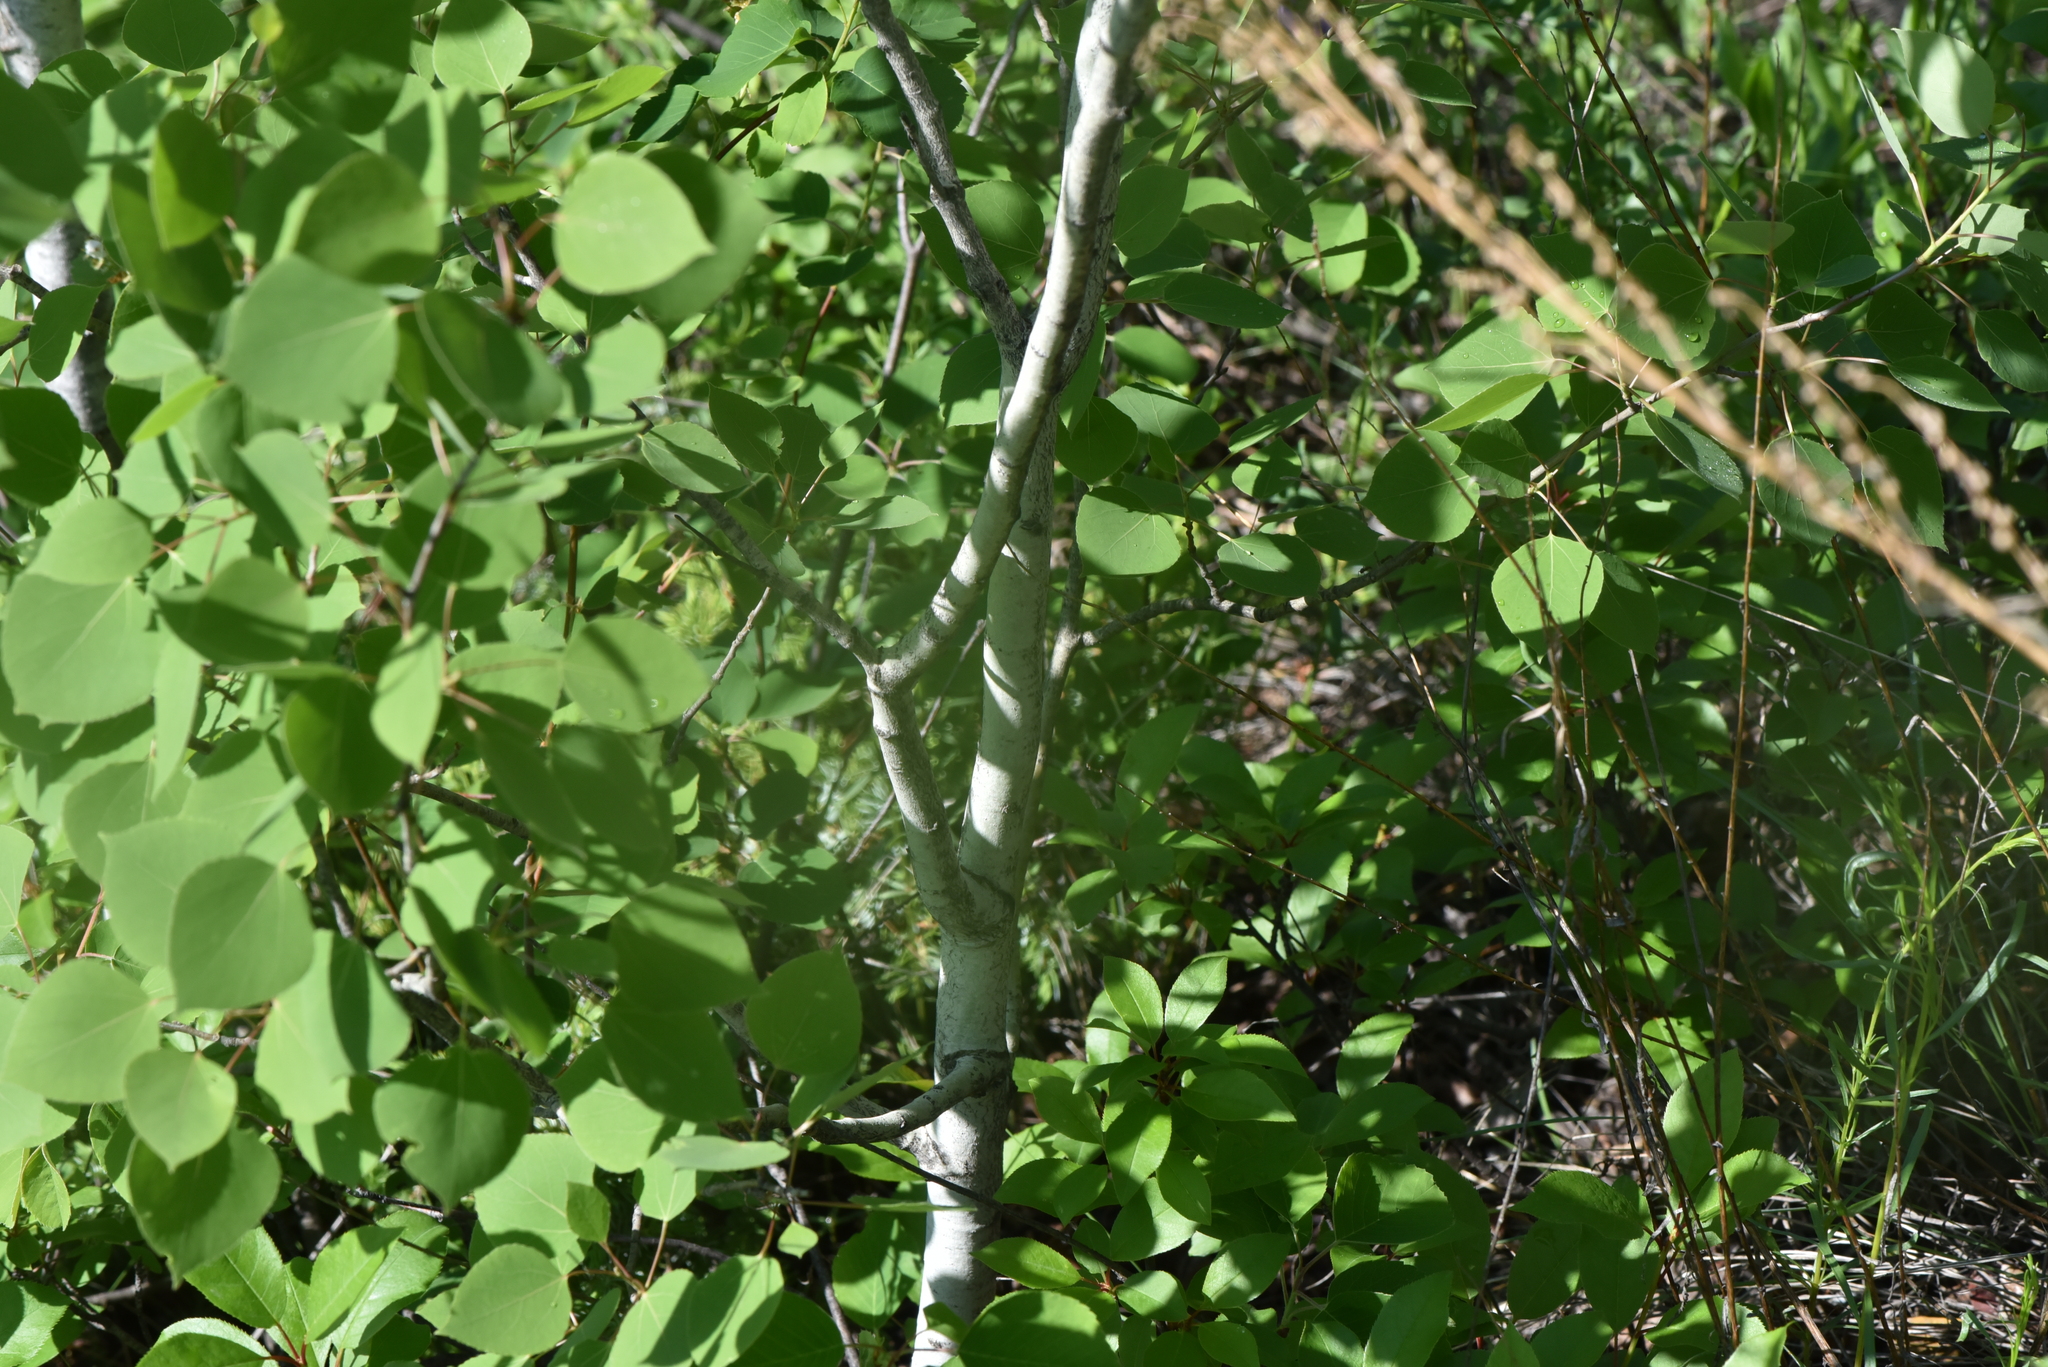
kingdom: Plantae
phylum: Tracheophyta
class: Magnoliopsida
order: Malpighiales
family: Salicaceae
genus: Populus
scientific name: Populus tremuloides
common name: Quaking aspen
